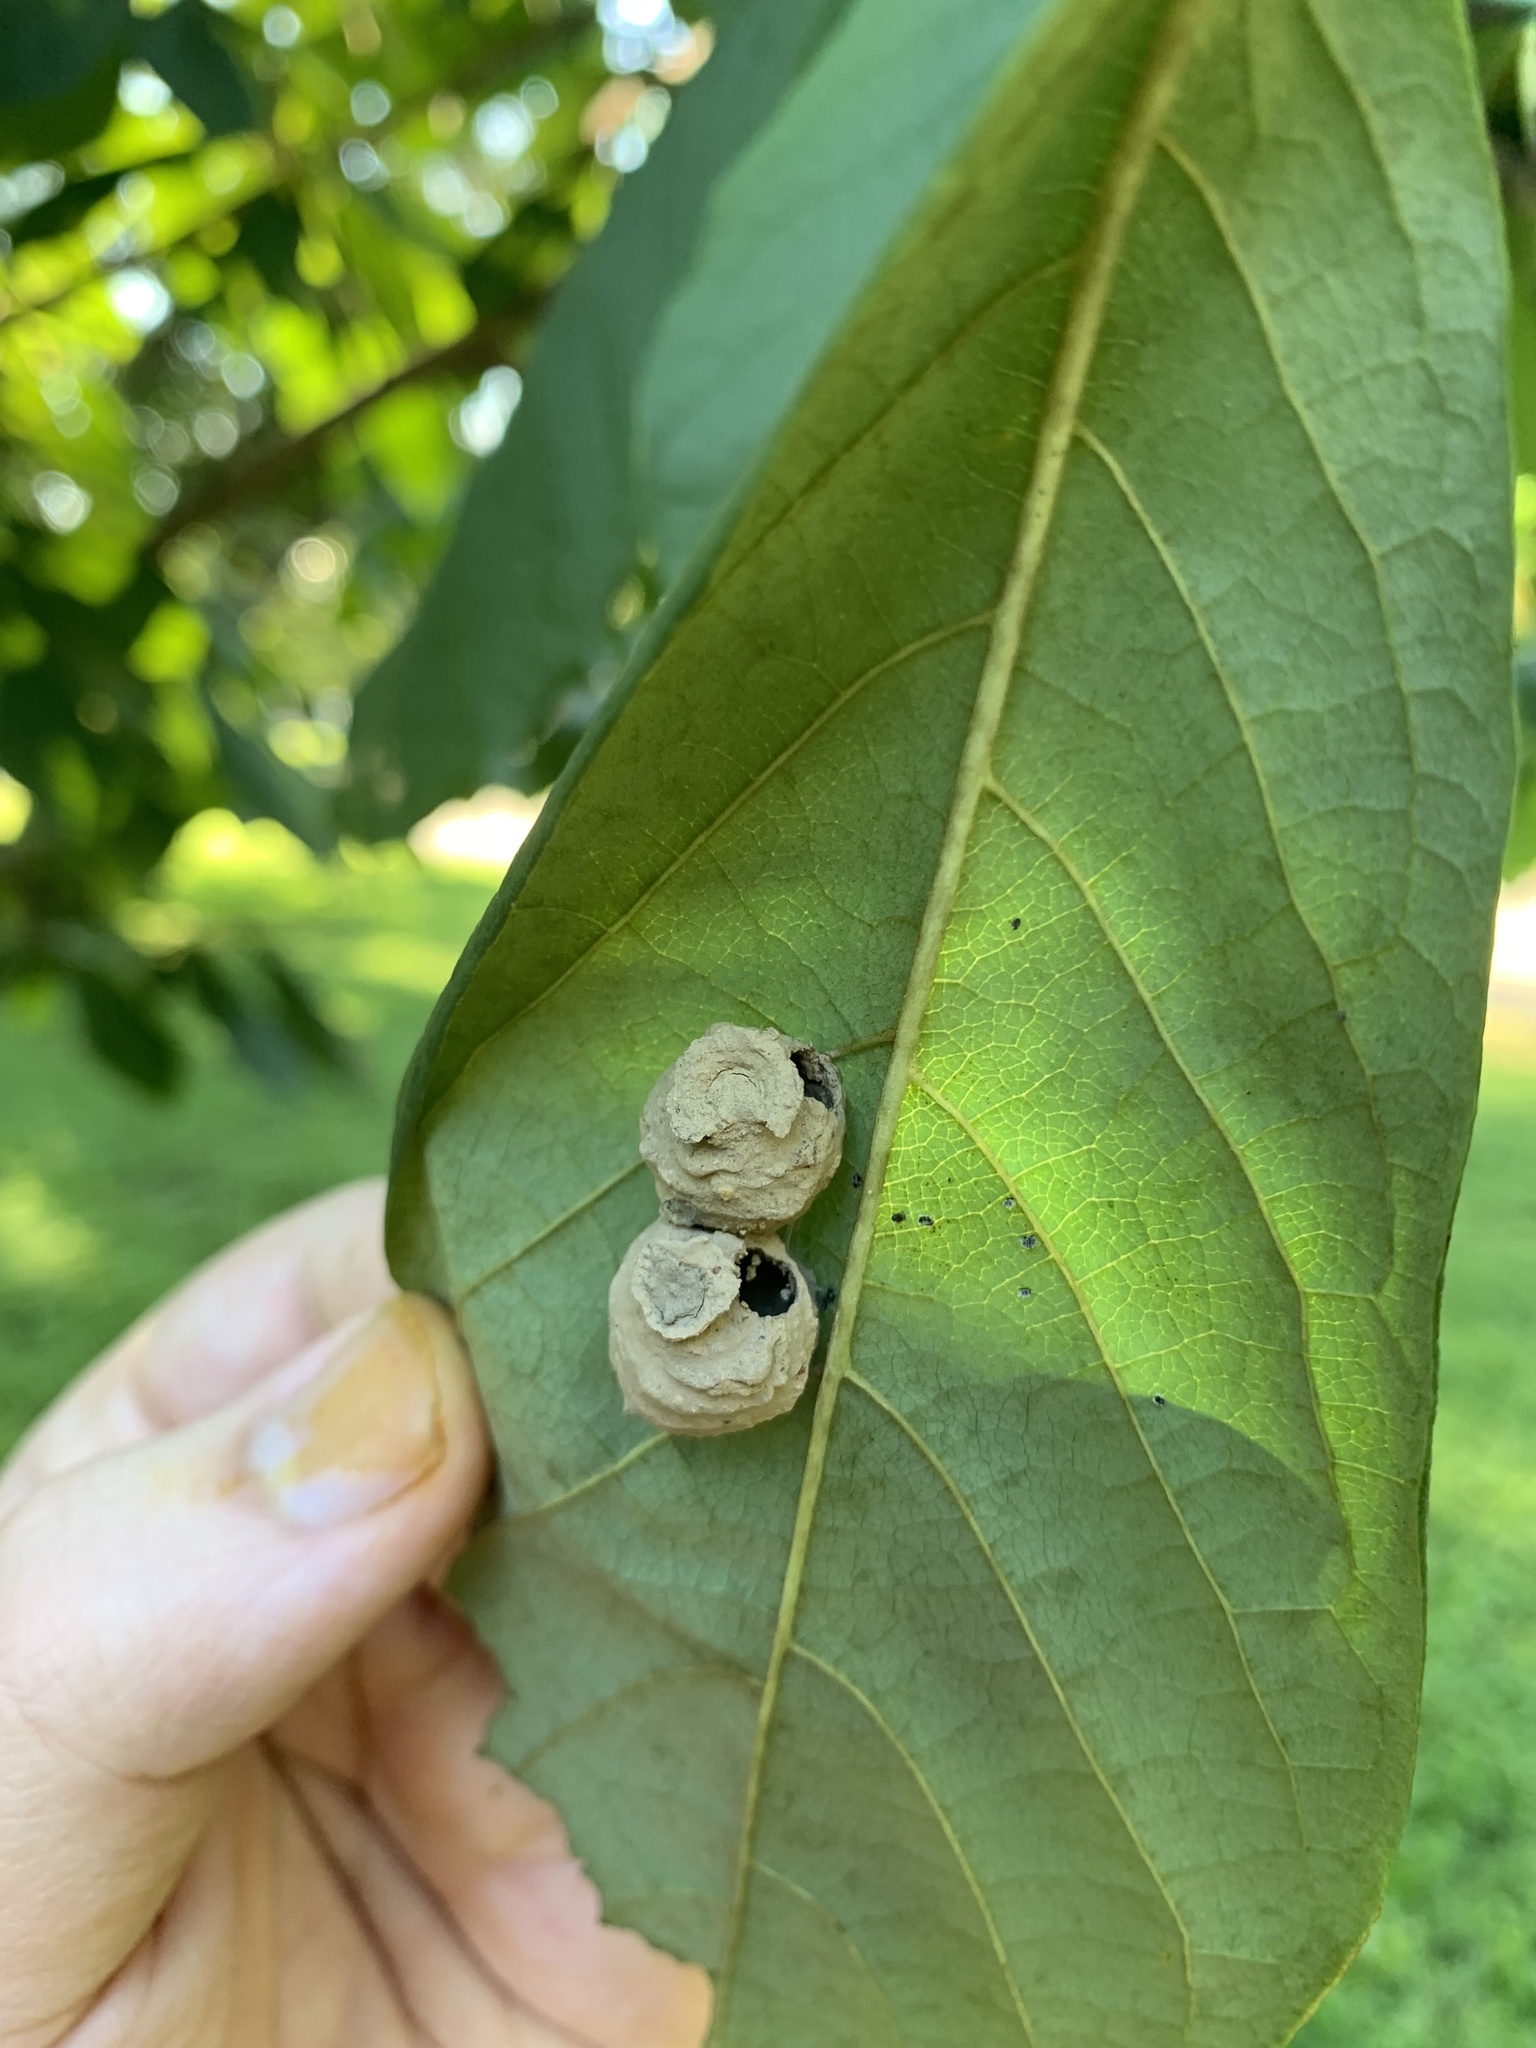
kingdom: Animalia
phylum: Arthropoda
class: Insecta
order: Hymenoptera
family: Vespidae
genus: Eumenes
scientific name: Eumenes
